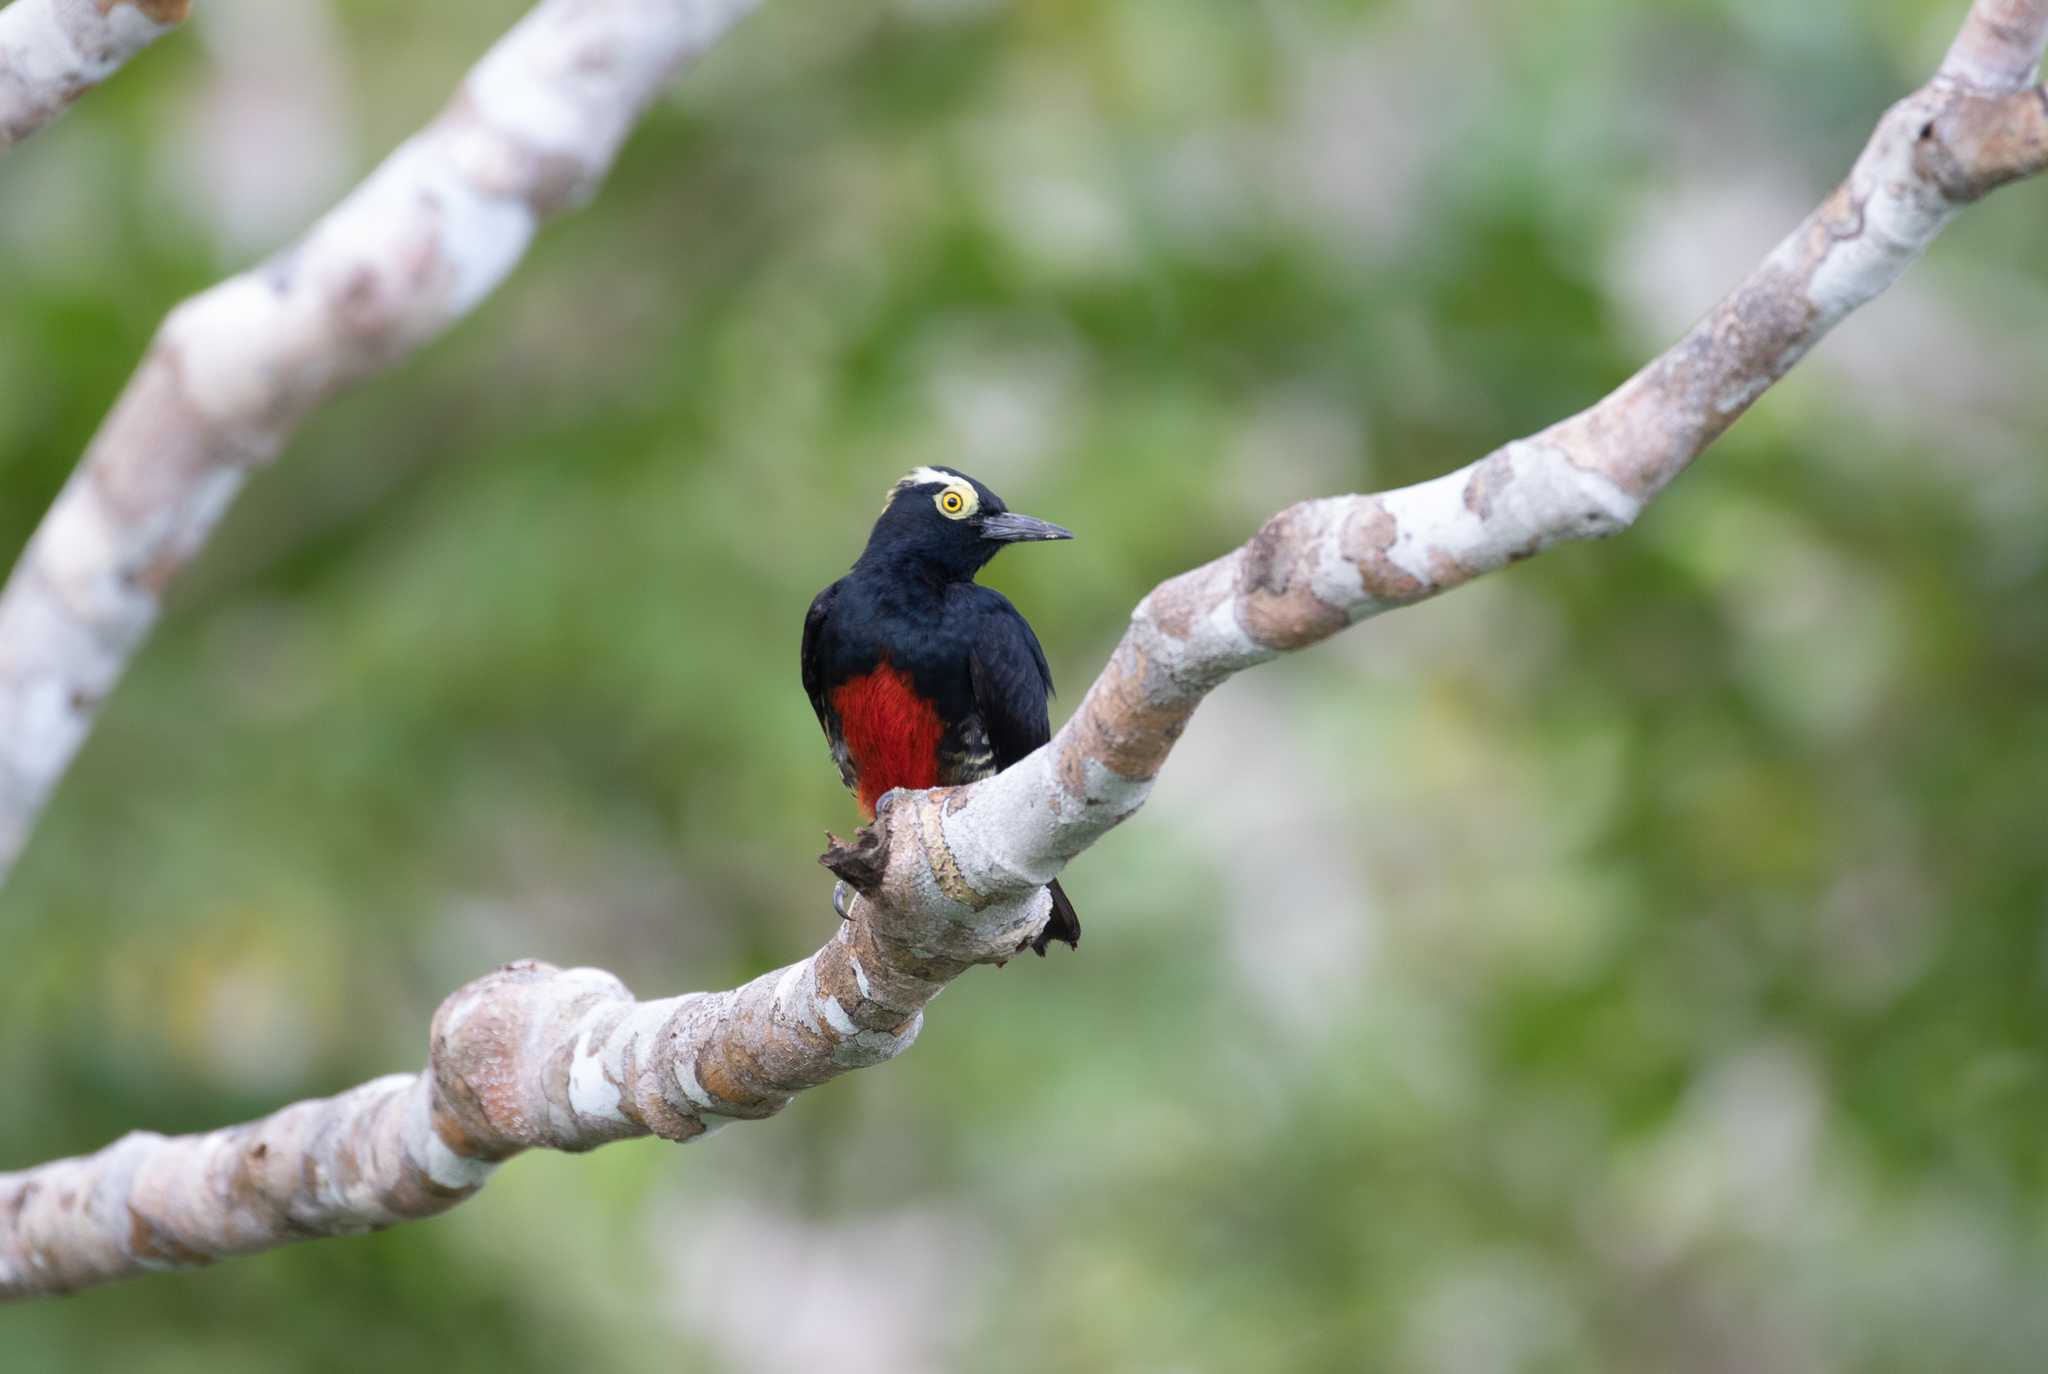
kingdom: Animalia
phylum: Chordata
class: Aves
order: Piciformes
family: Picidae
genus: Melanerpes
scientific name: Melanerpes cruentatus
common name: Yellow-tufted woodpecker
